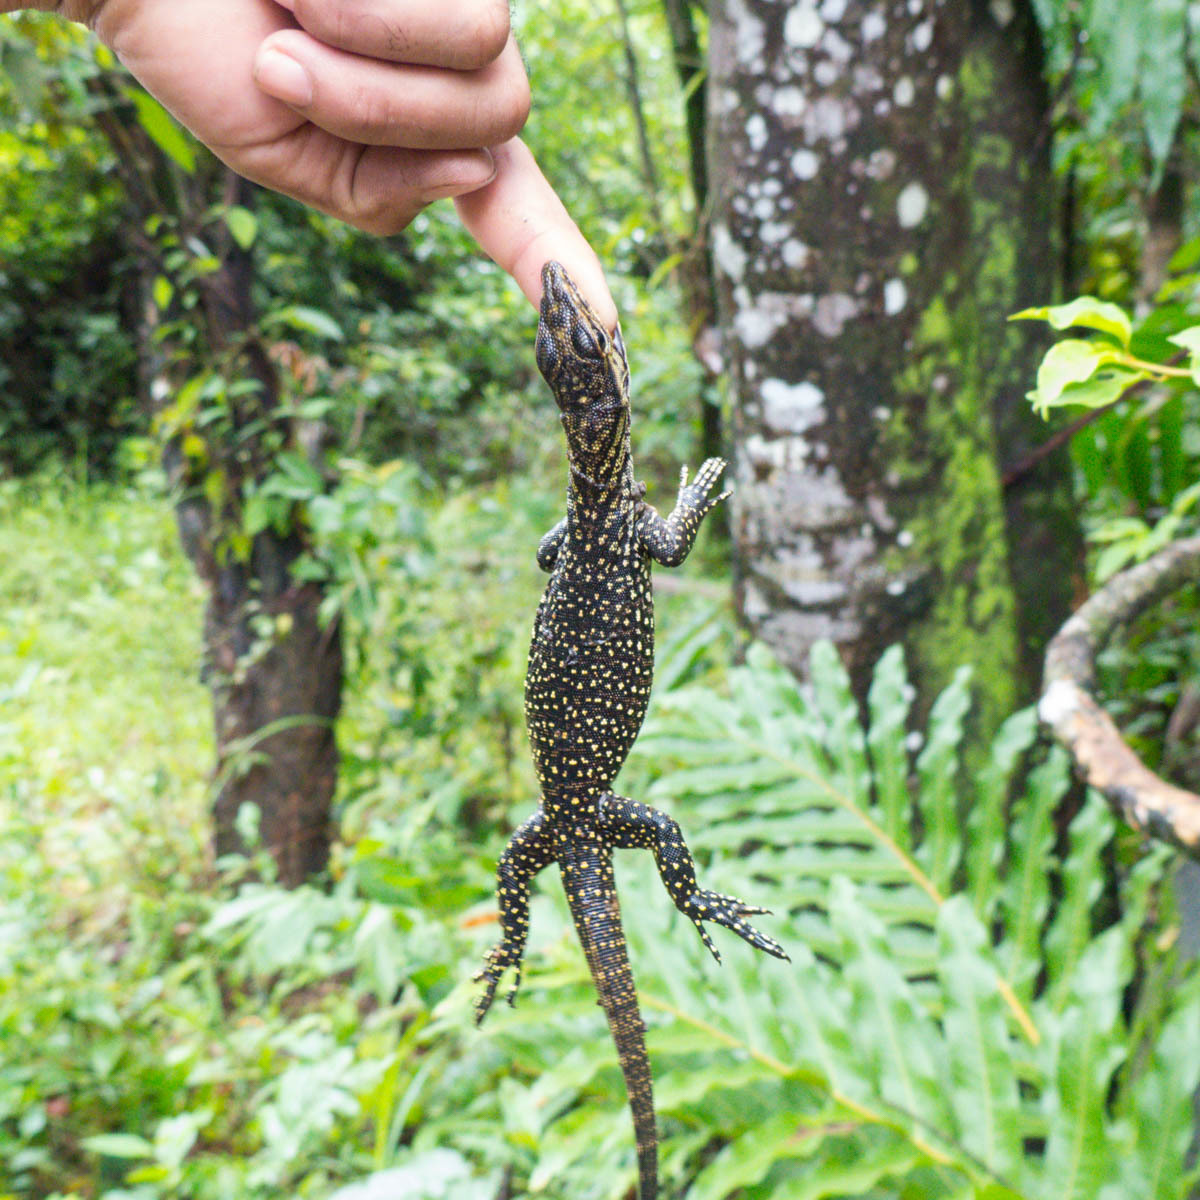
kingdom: Animalia
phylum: Chordata
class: Squamata
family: Varanidae
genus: Varanus
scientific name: Varanus nebulosus
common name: Clouded monitor
